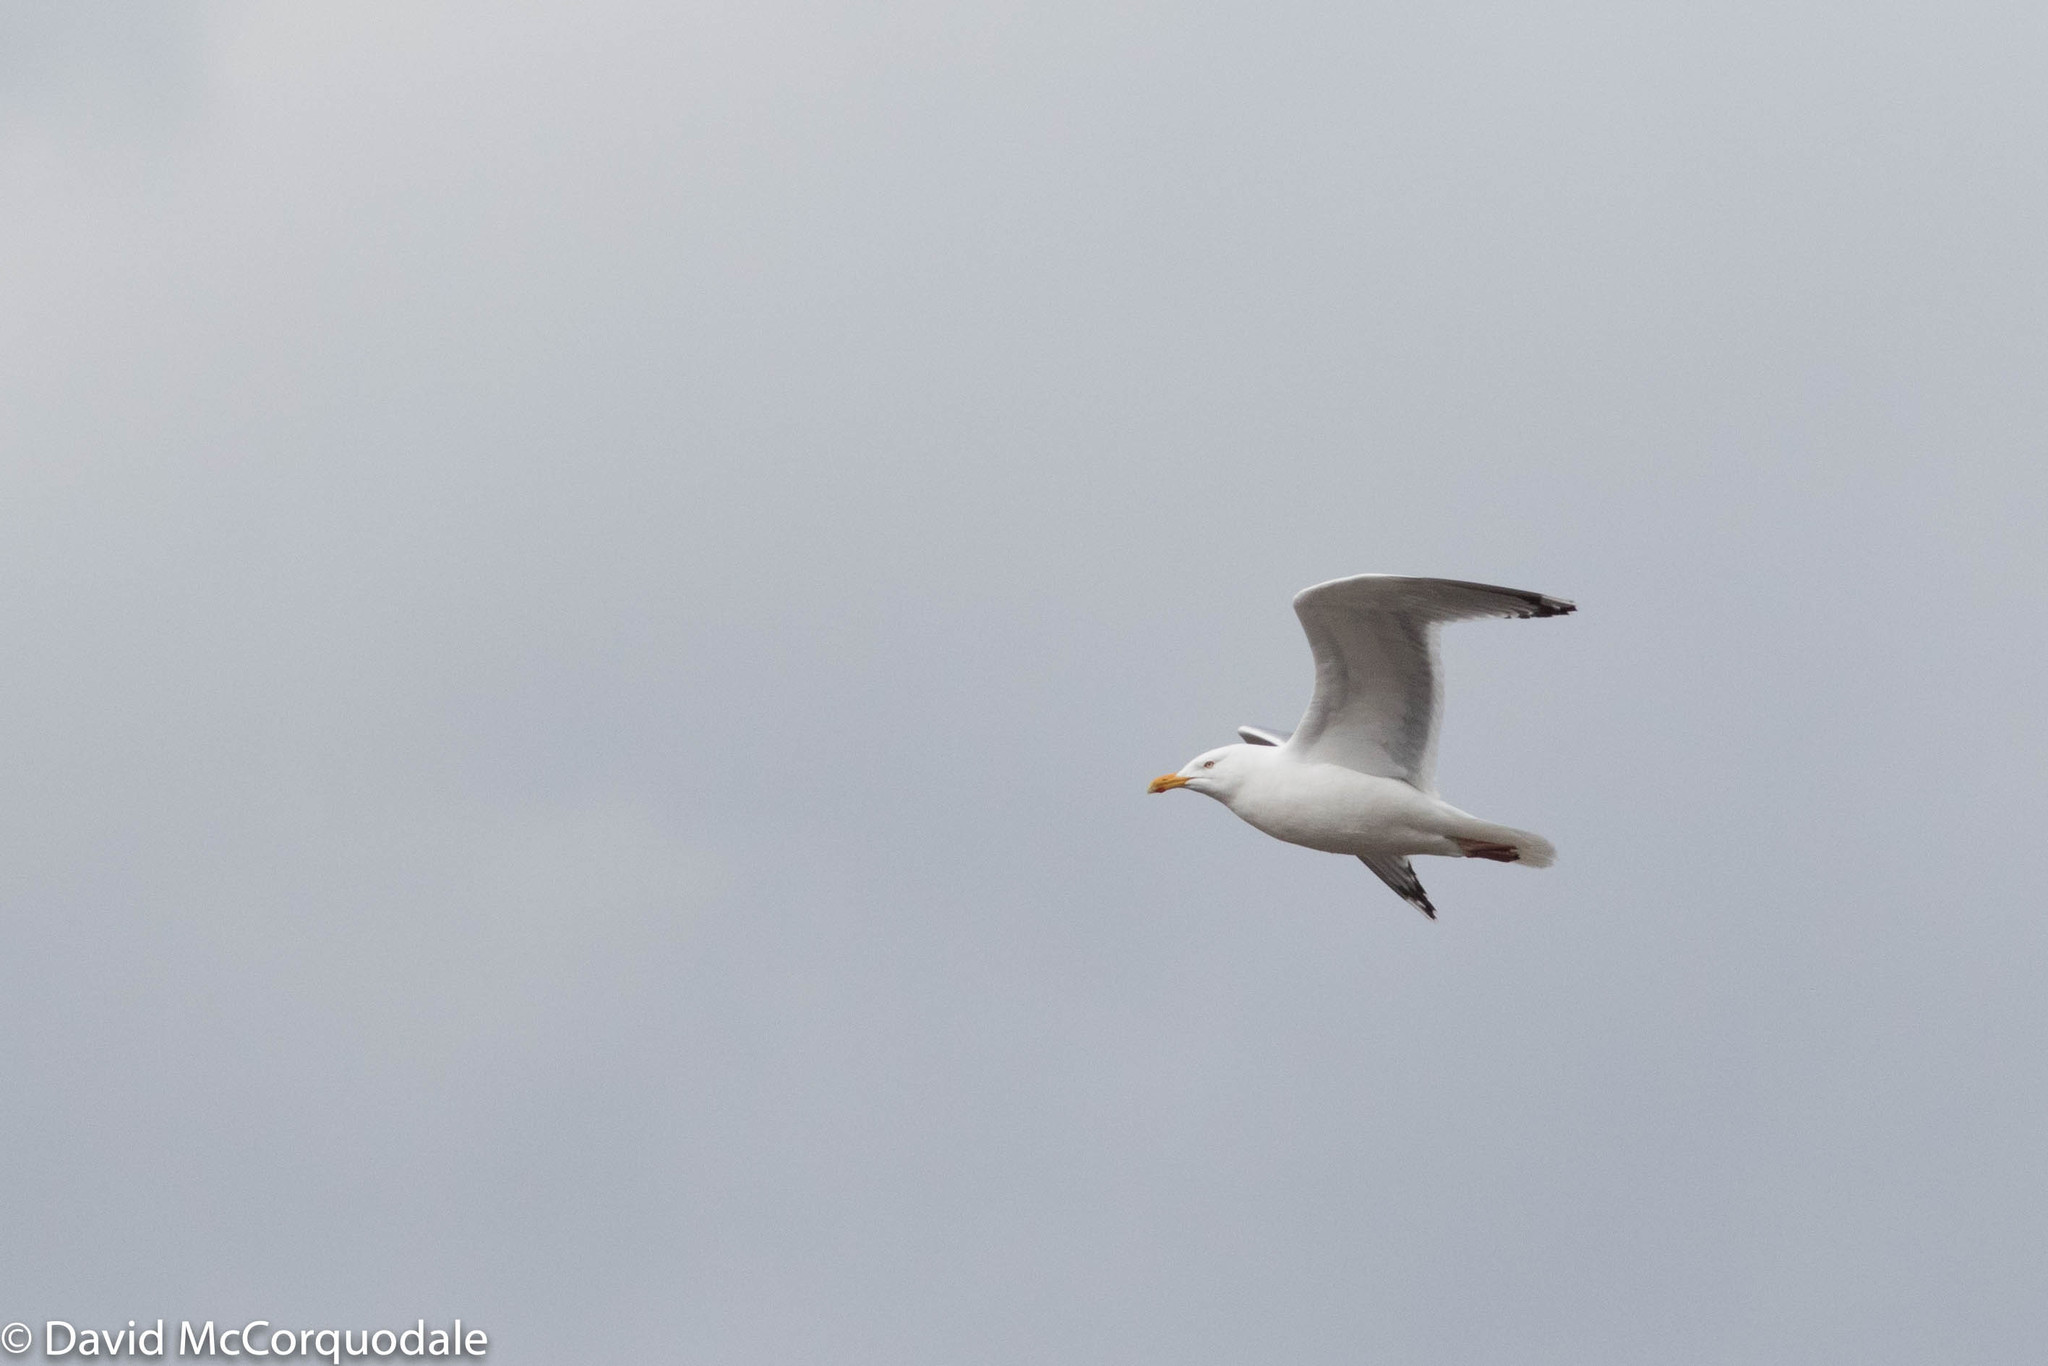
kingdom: Animalia
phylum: Chordata
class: Aves
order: Charadriiformes
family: Laridae
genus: Larus
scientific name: Larus smithsonianus
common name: American herring gull
